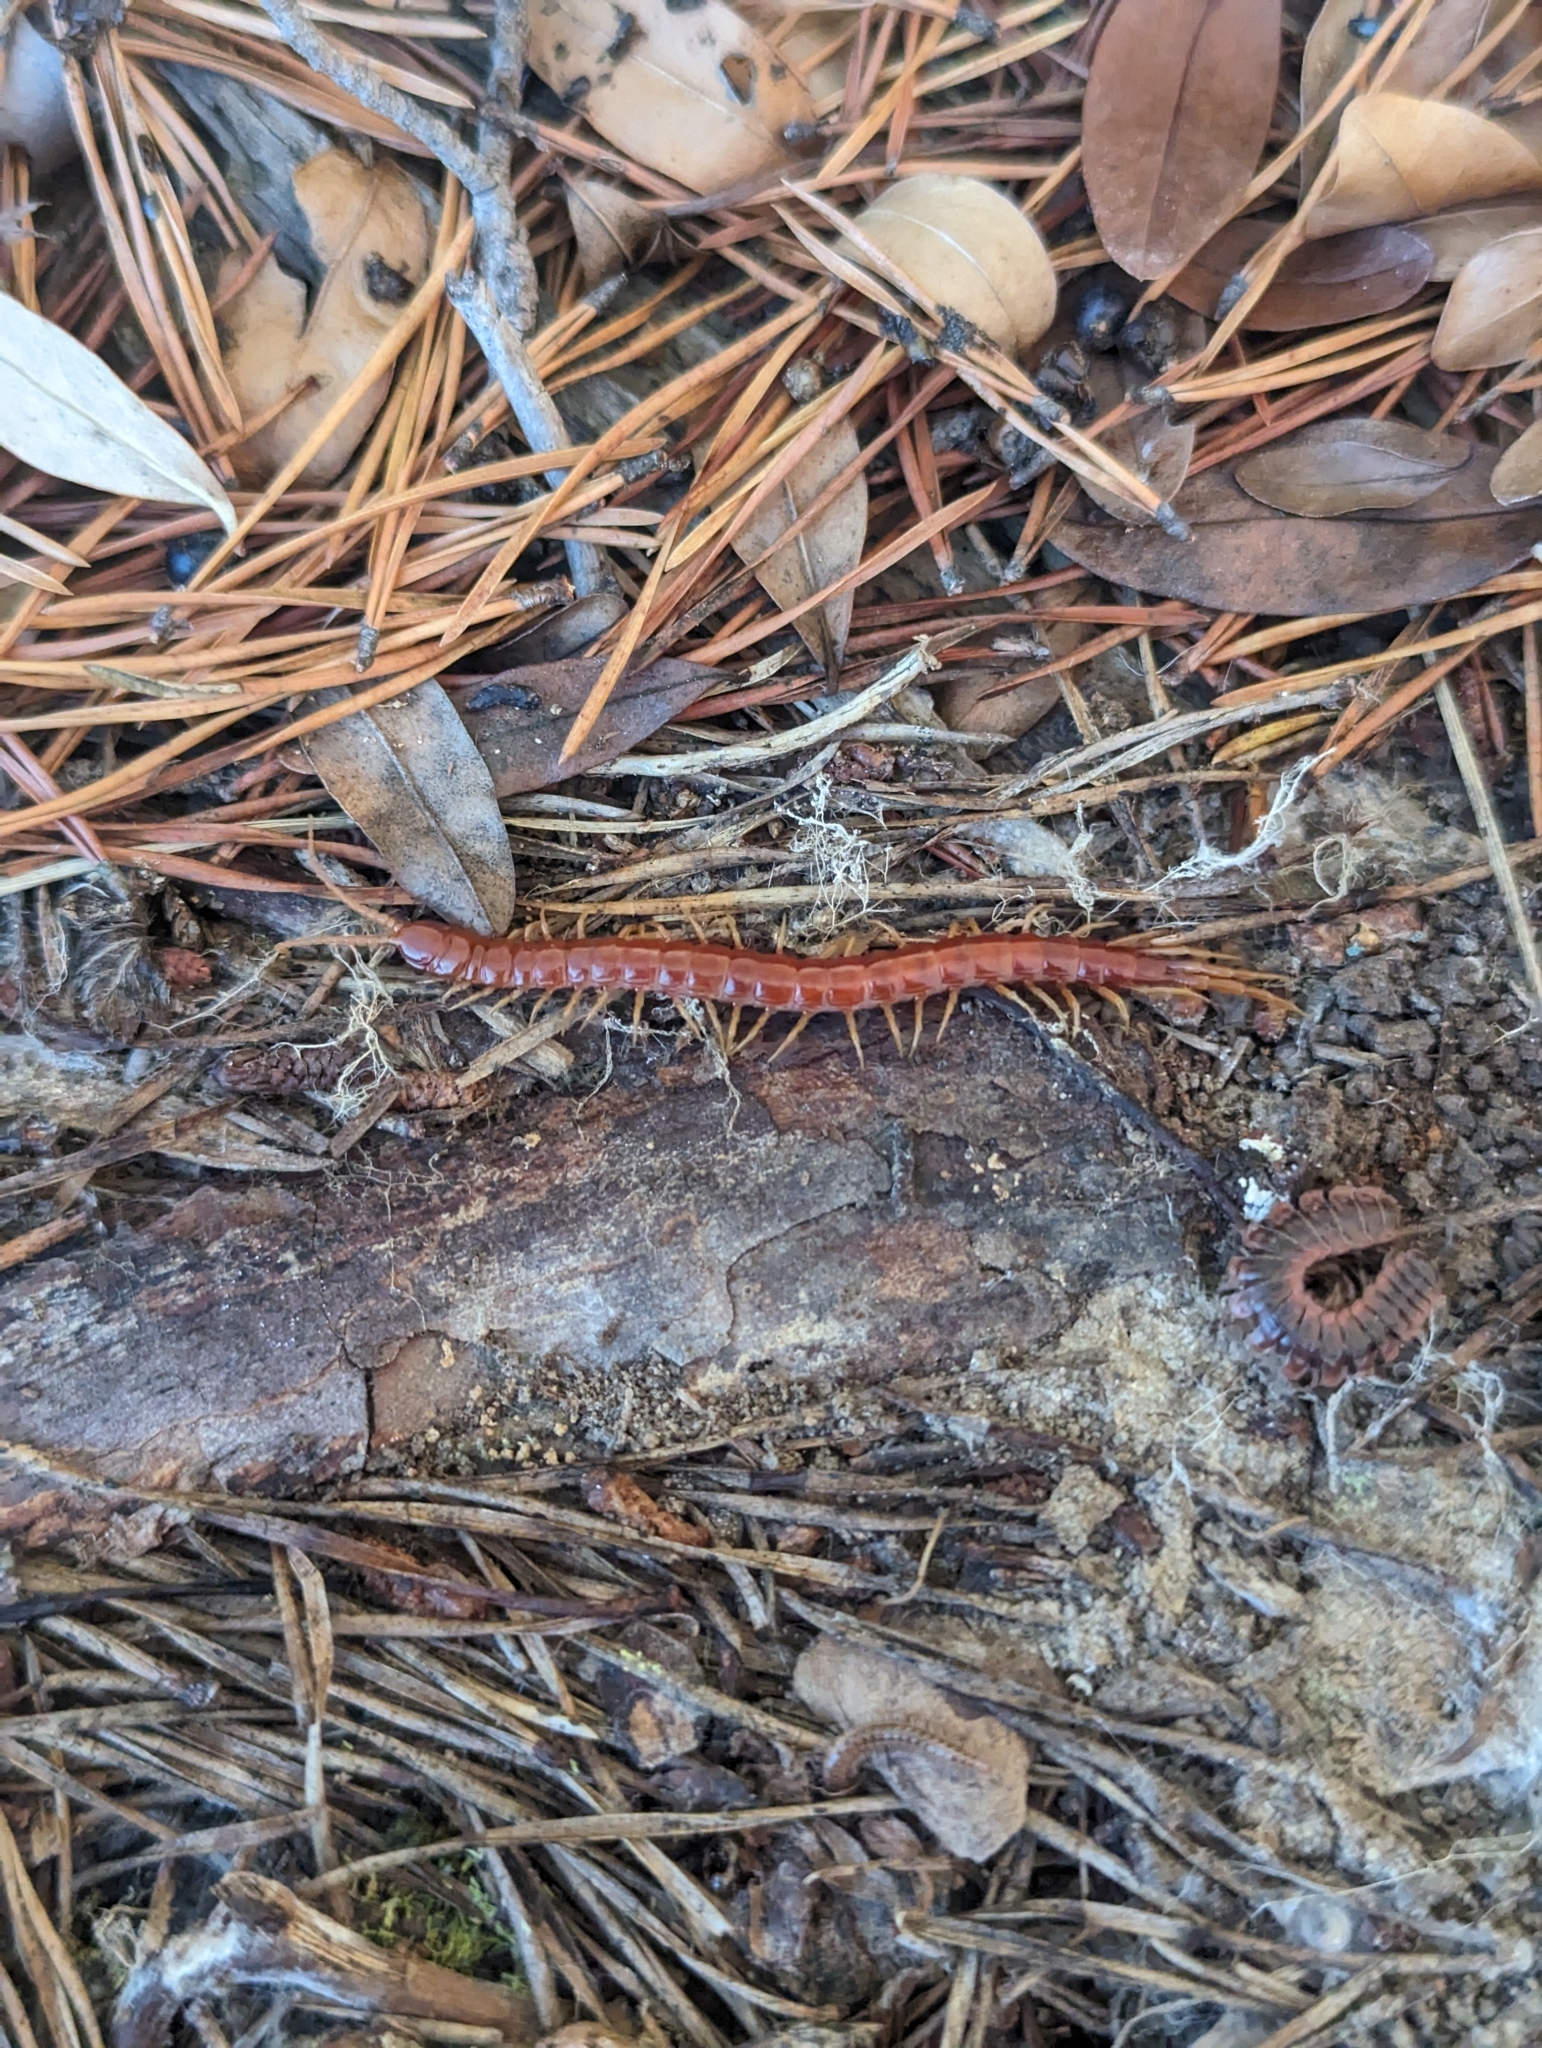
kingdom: Animalia
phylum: Arthropoda
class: Chilopoda
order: Scolopendromorpha
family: Scolopocryptopidae
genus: Scolopocryptops
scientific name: Scolopocryptops sexspinosus
